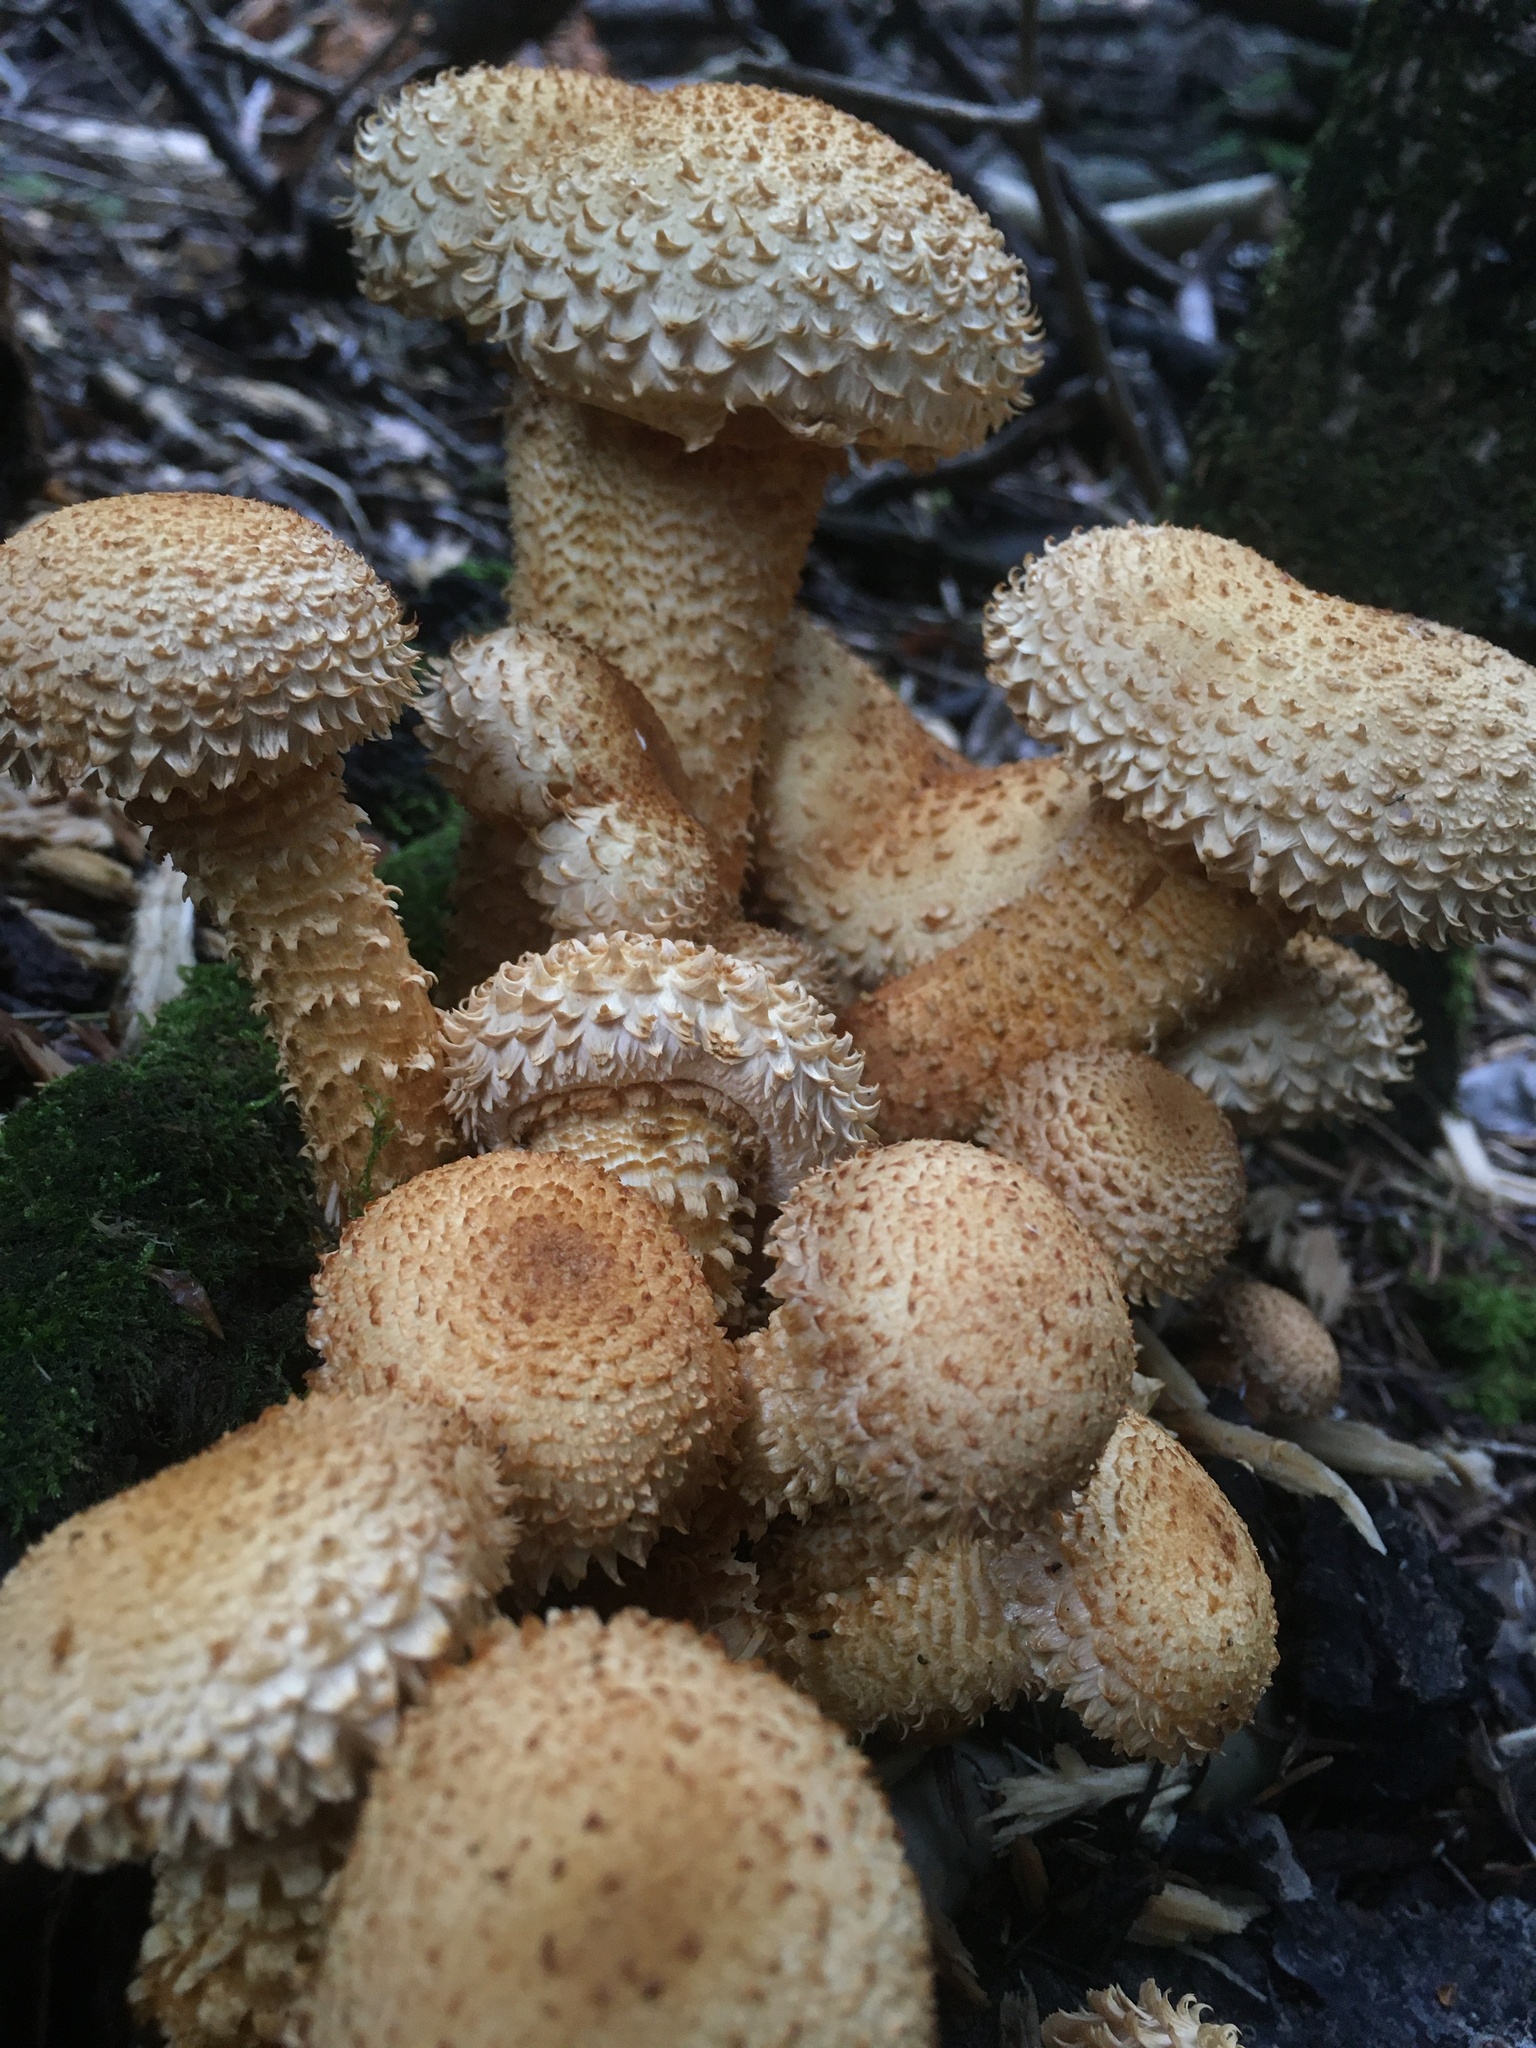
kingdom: Fungi
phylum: Basidiomycota
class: Agaricomycetes
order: Agaricales
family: Strophariaceae
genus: Pholiota
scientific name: Pholiota squarrosa
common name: Shaggy pholiota
